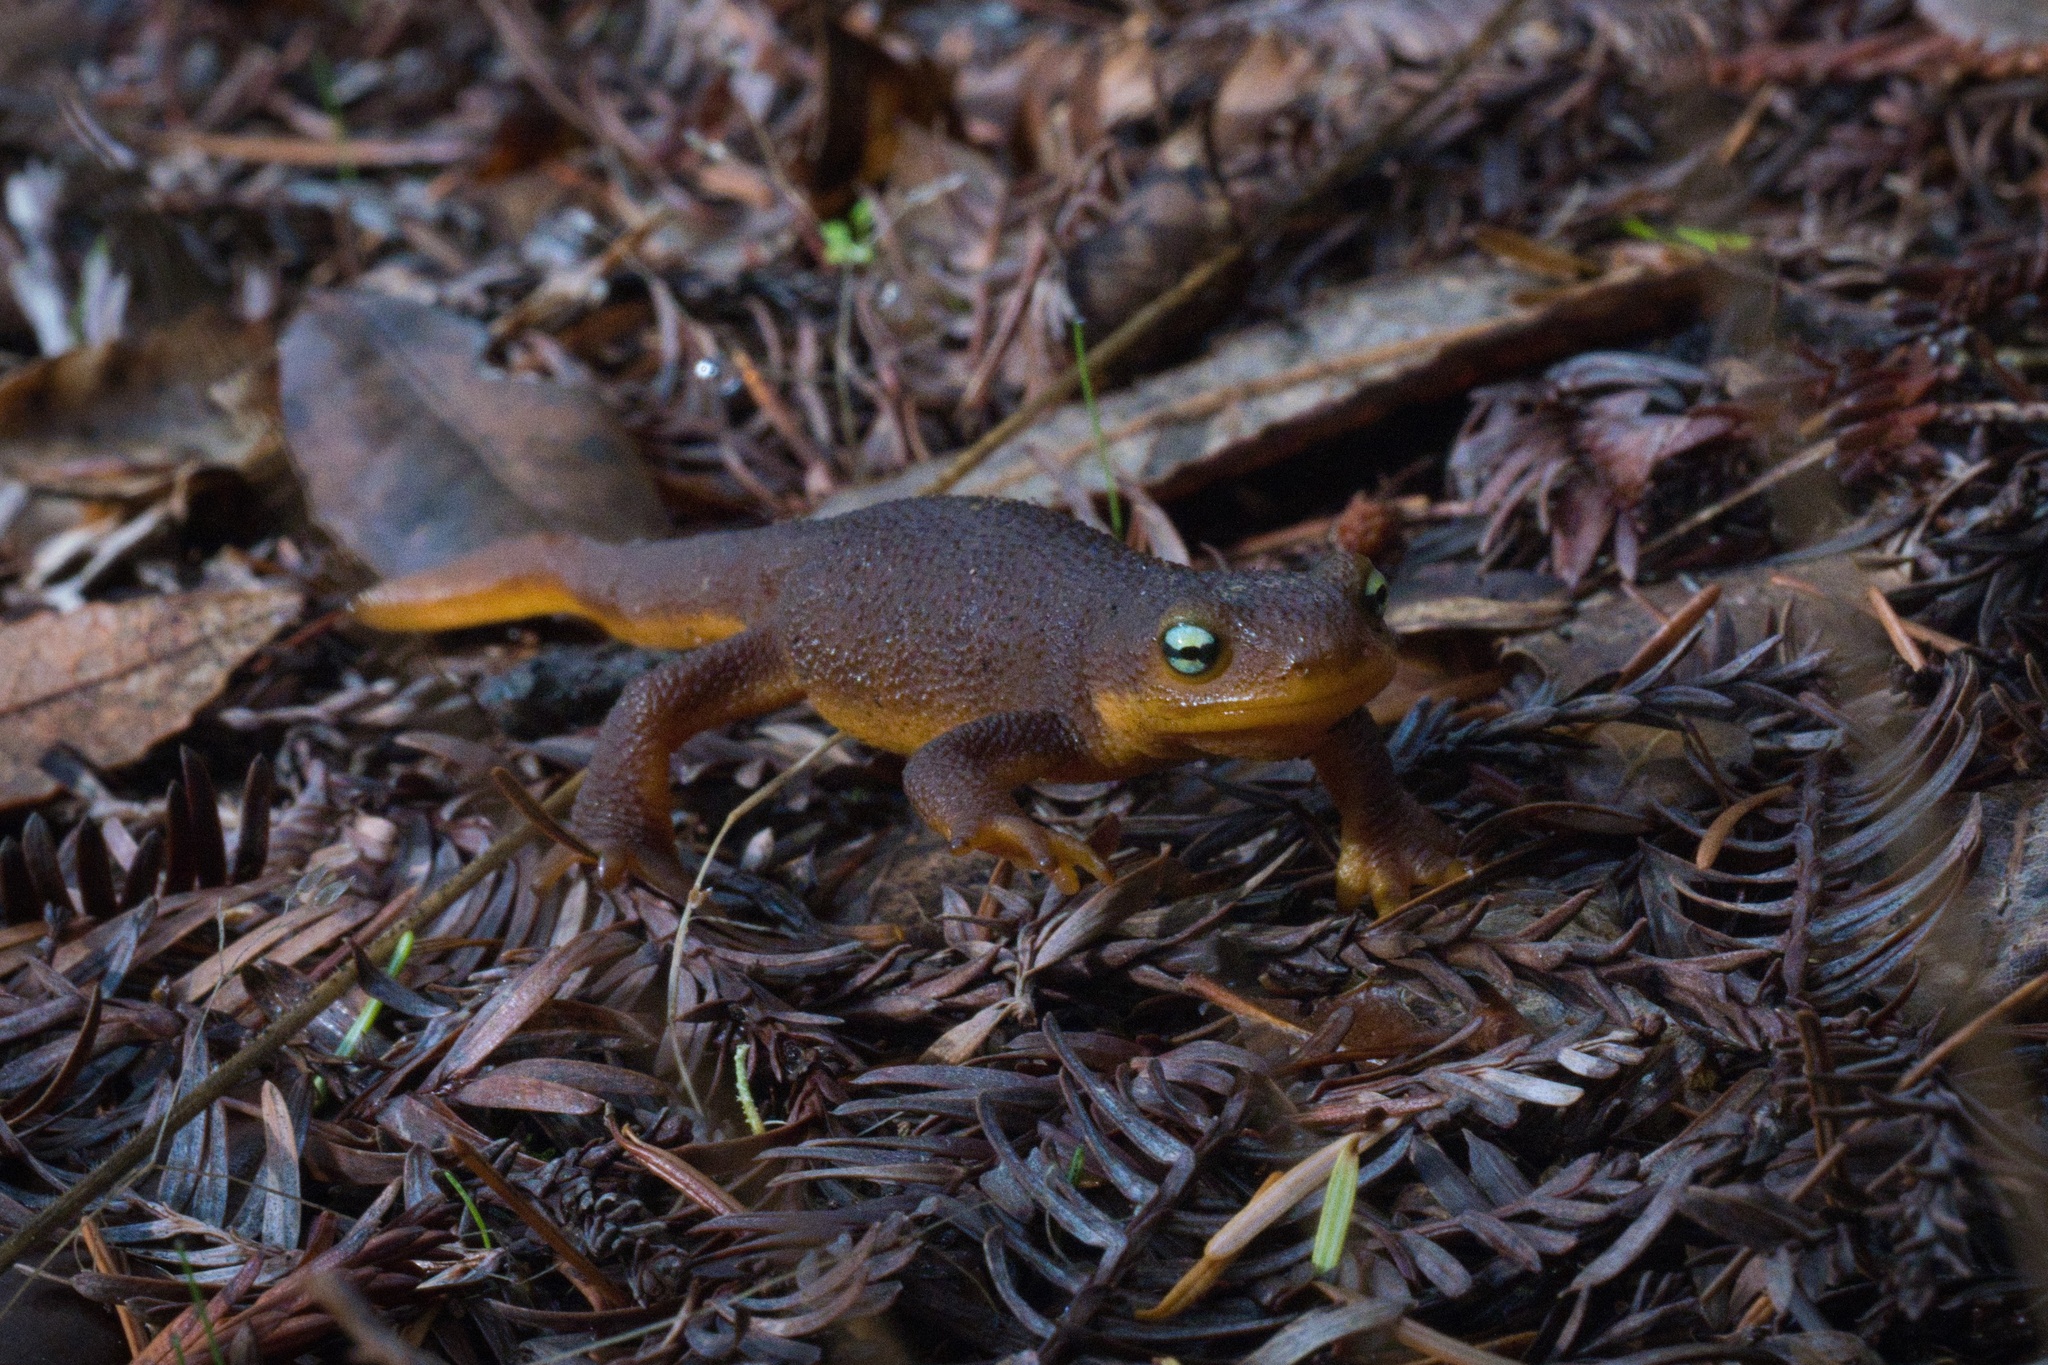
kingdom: Animalia
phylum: Chordata
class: Amphibia
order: Caudata
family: Salamandridae
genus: Taricha
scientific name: Taricha torosa
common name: California newt
